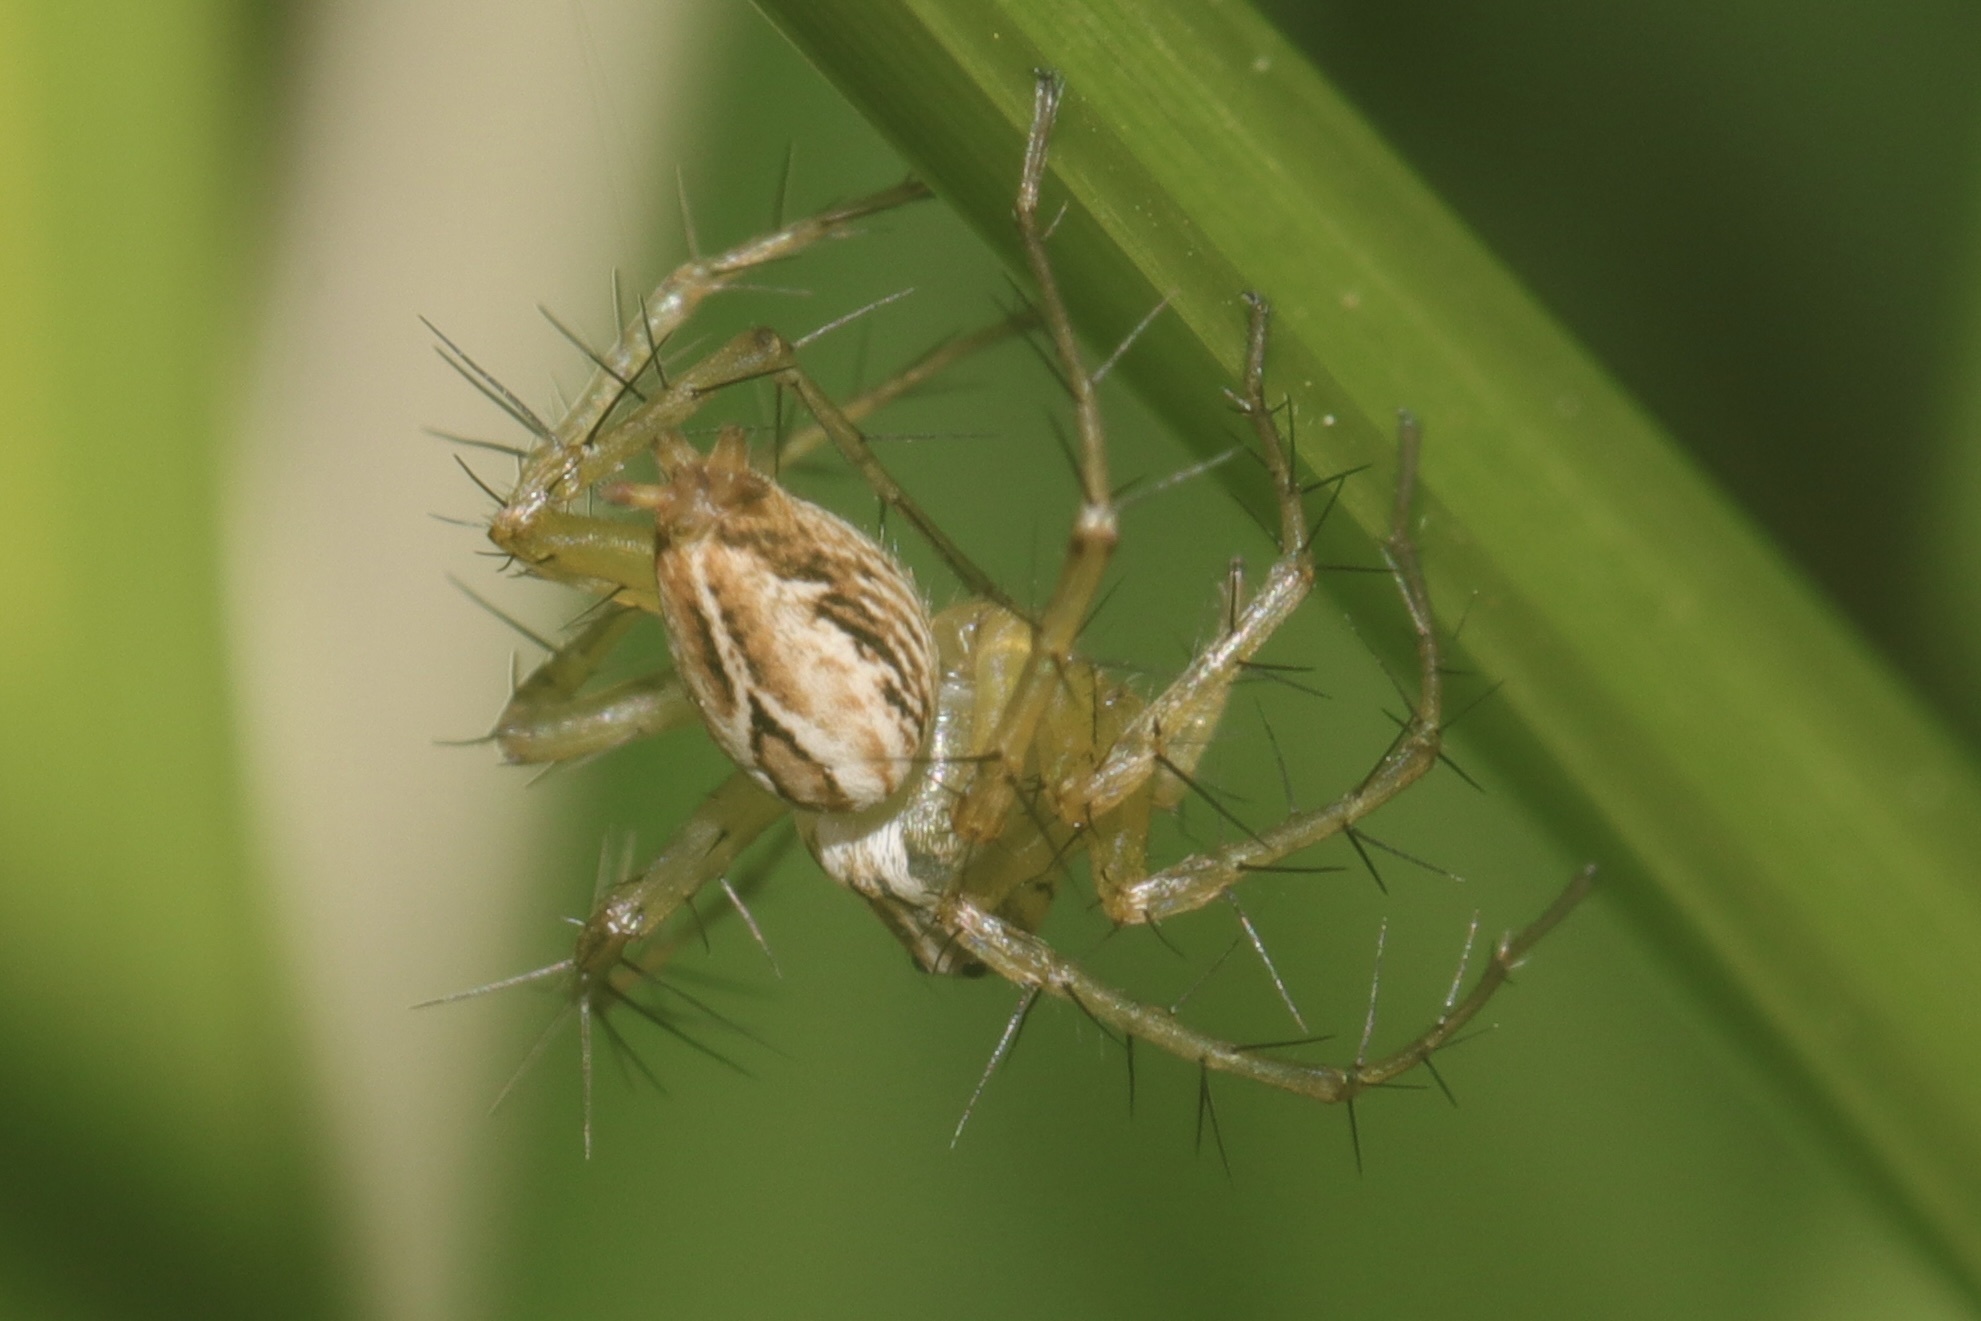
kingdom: Animalia
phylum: Arthropoda
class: Arachnida
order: Araneae
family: Oxyopidae
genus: Oxyopes
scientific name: Oxyopes salticus
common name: Lynx spiders
